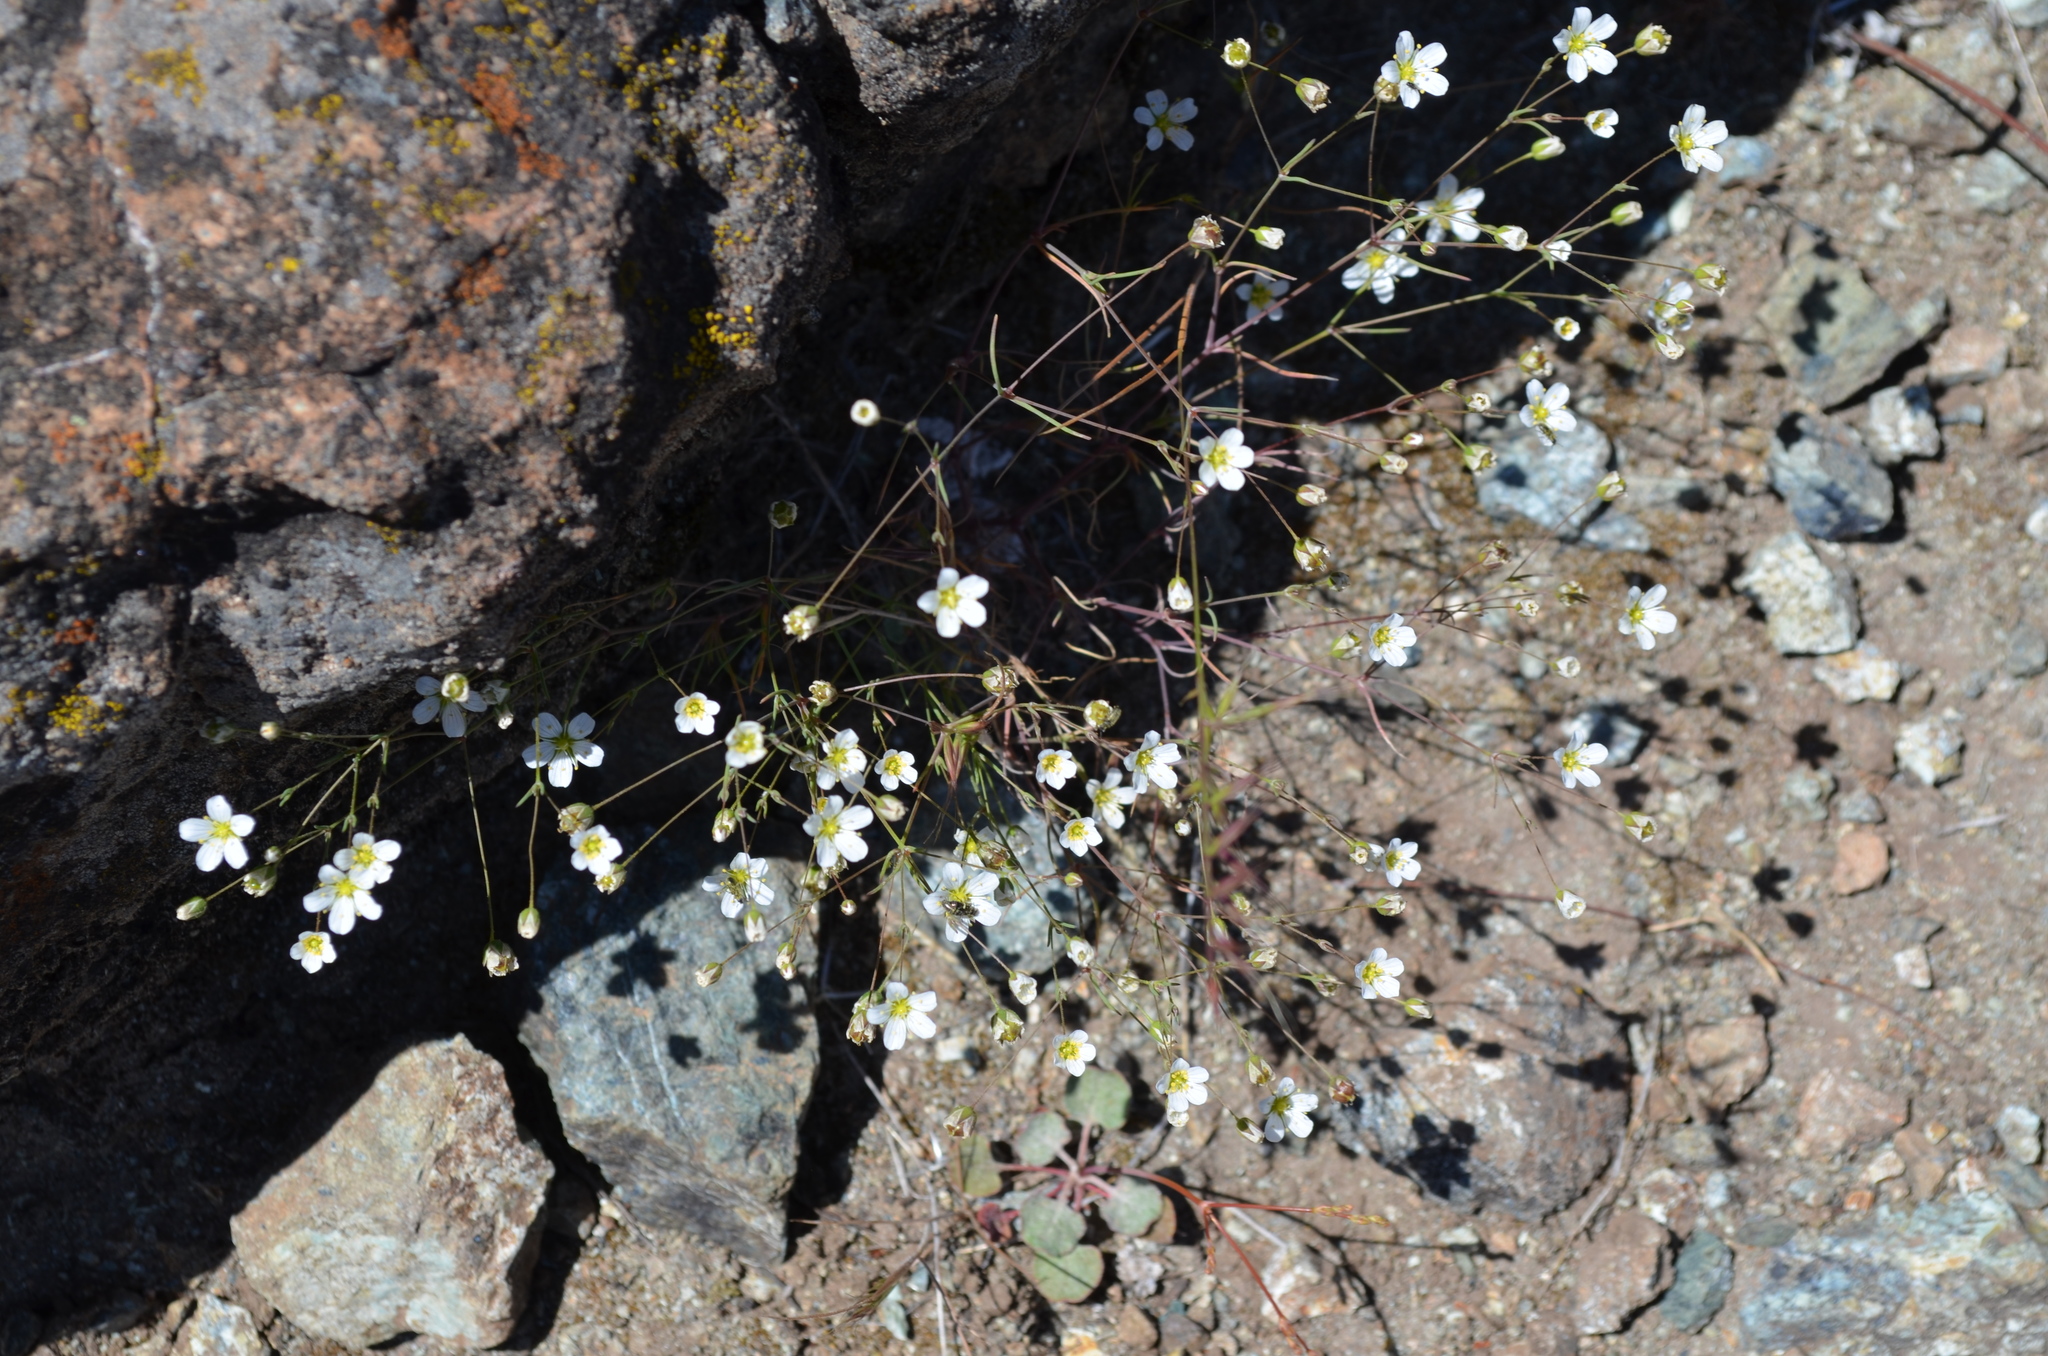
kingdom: Plantae
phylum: Tracheophyta
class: Magnoliopsida
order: Caryophyllales
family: Caryophyllaceae
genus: Sabulina
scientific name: Sabulina douglasii
